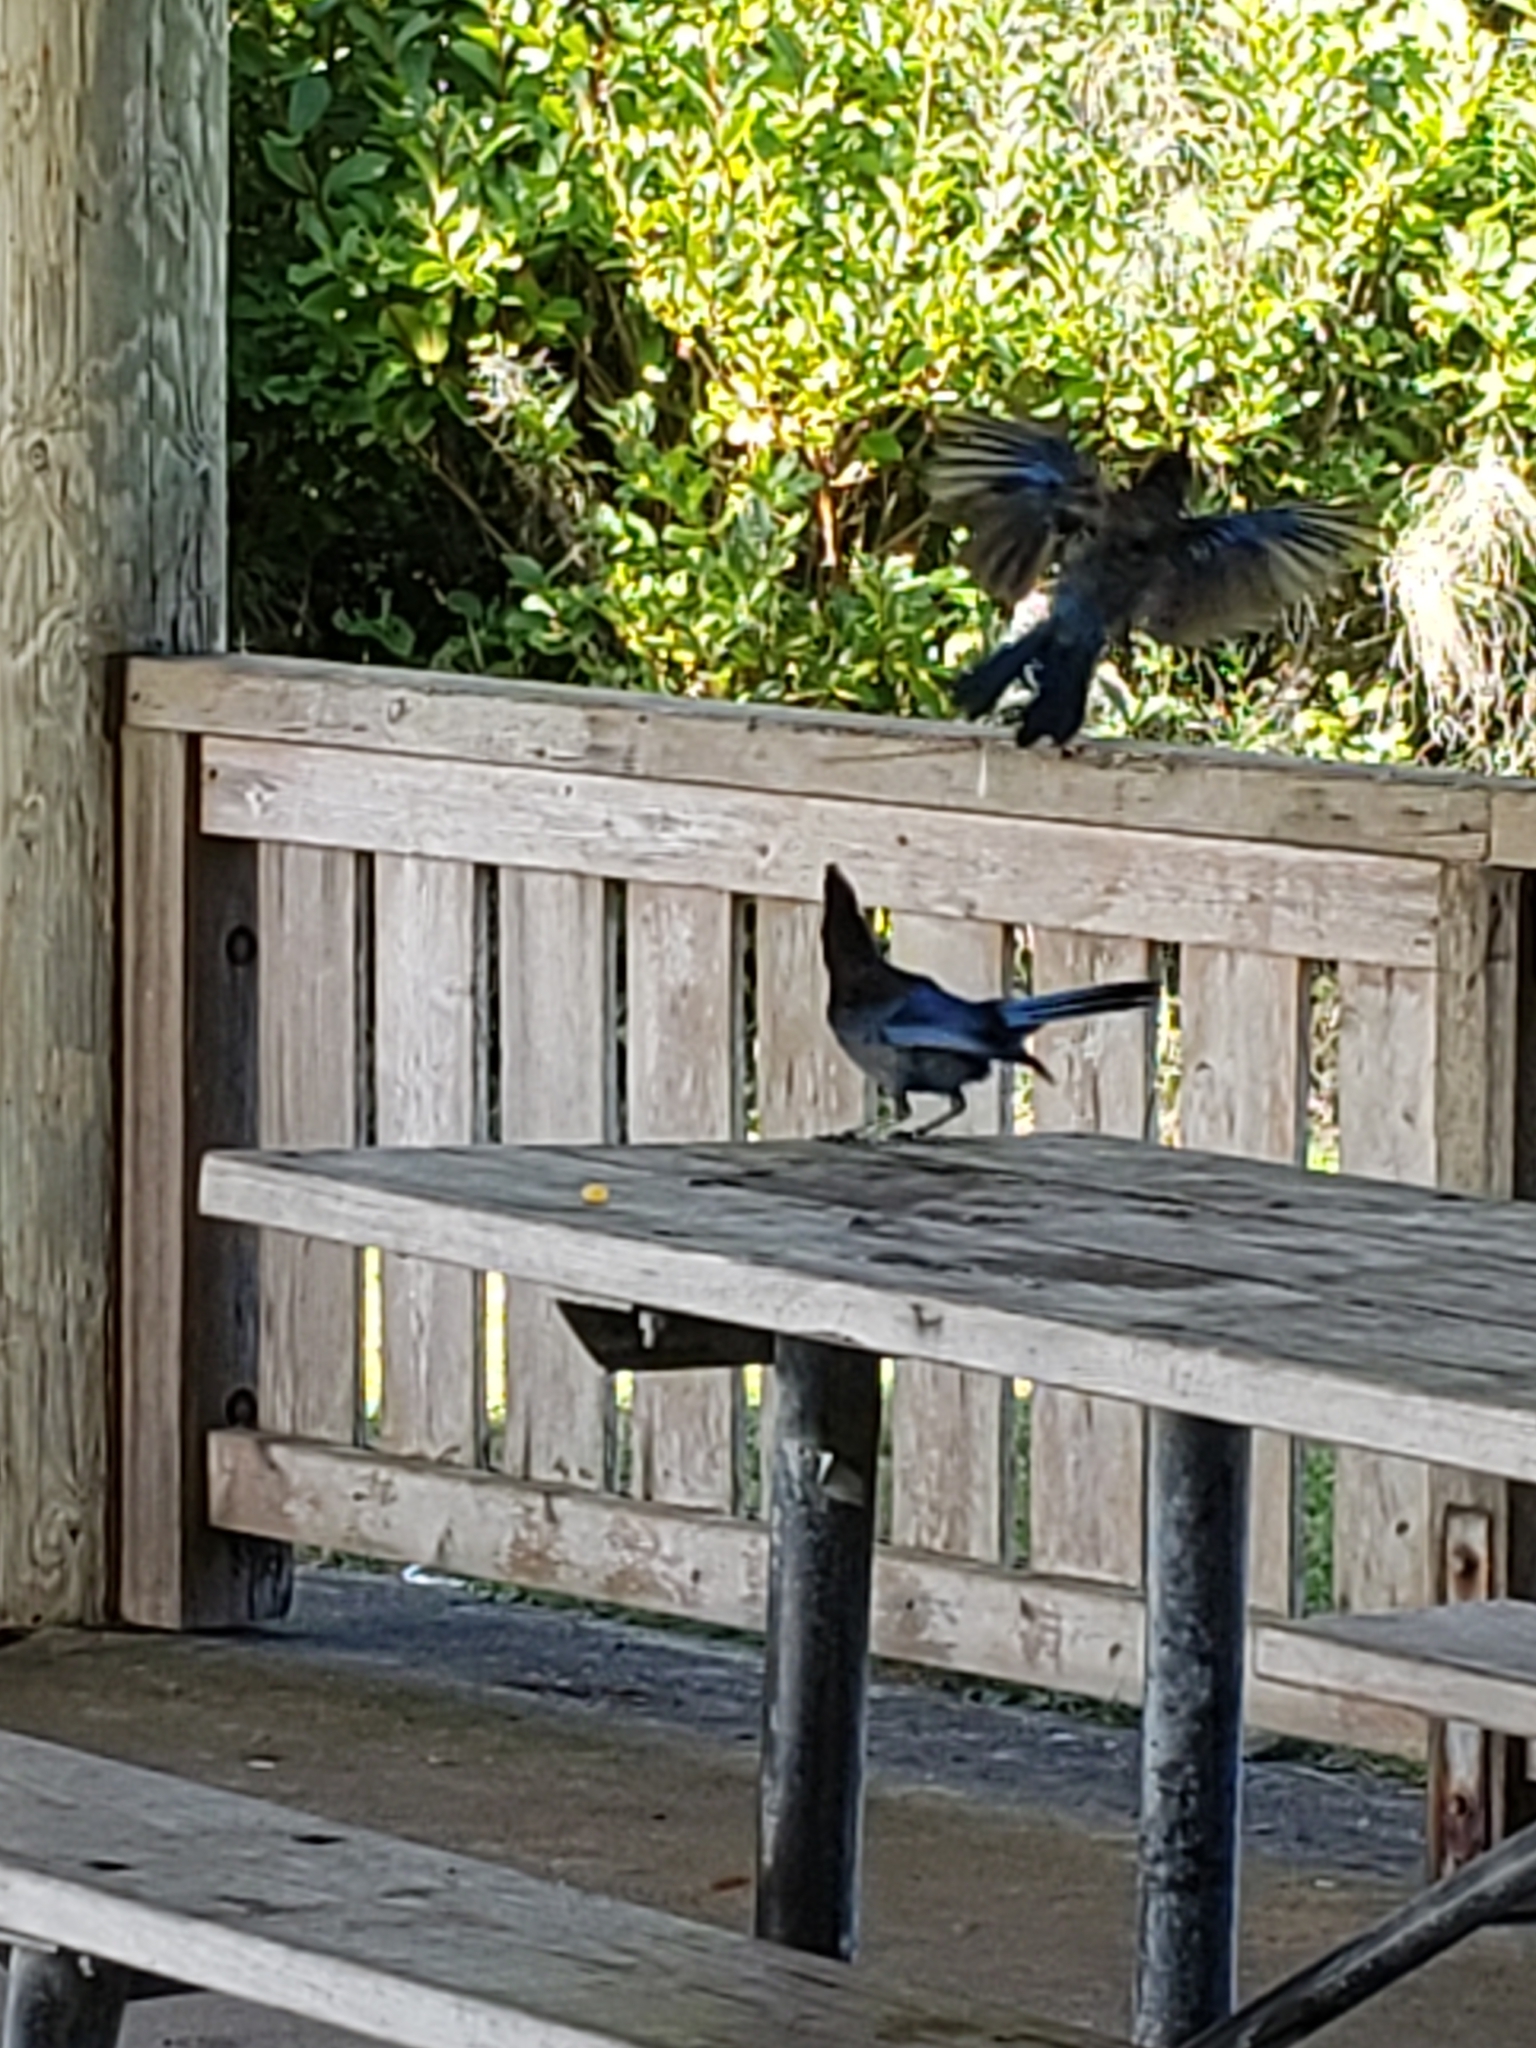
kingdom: Animalia
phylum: Chordata
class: Aves
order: Passeriformes
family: Corvidae
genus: Cyanocitta
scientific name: Cyanocitta stelleri
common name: Steller's jay
